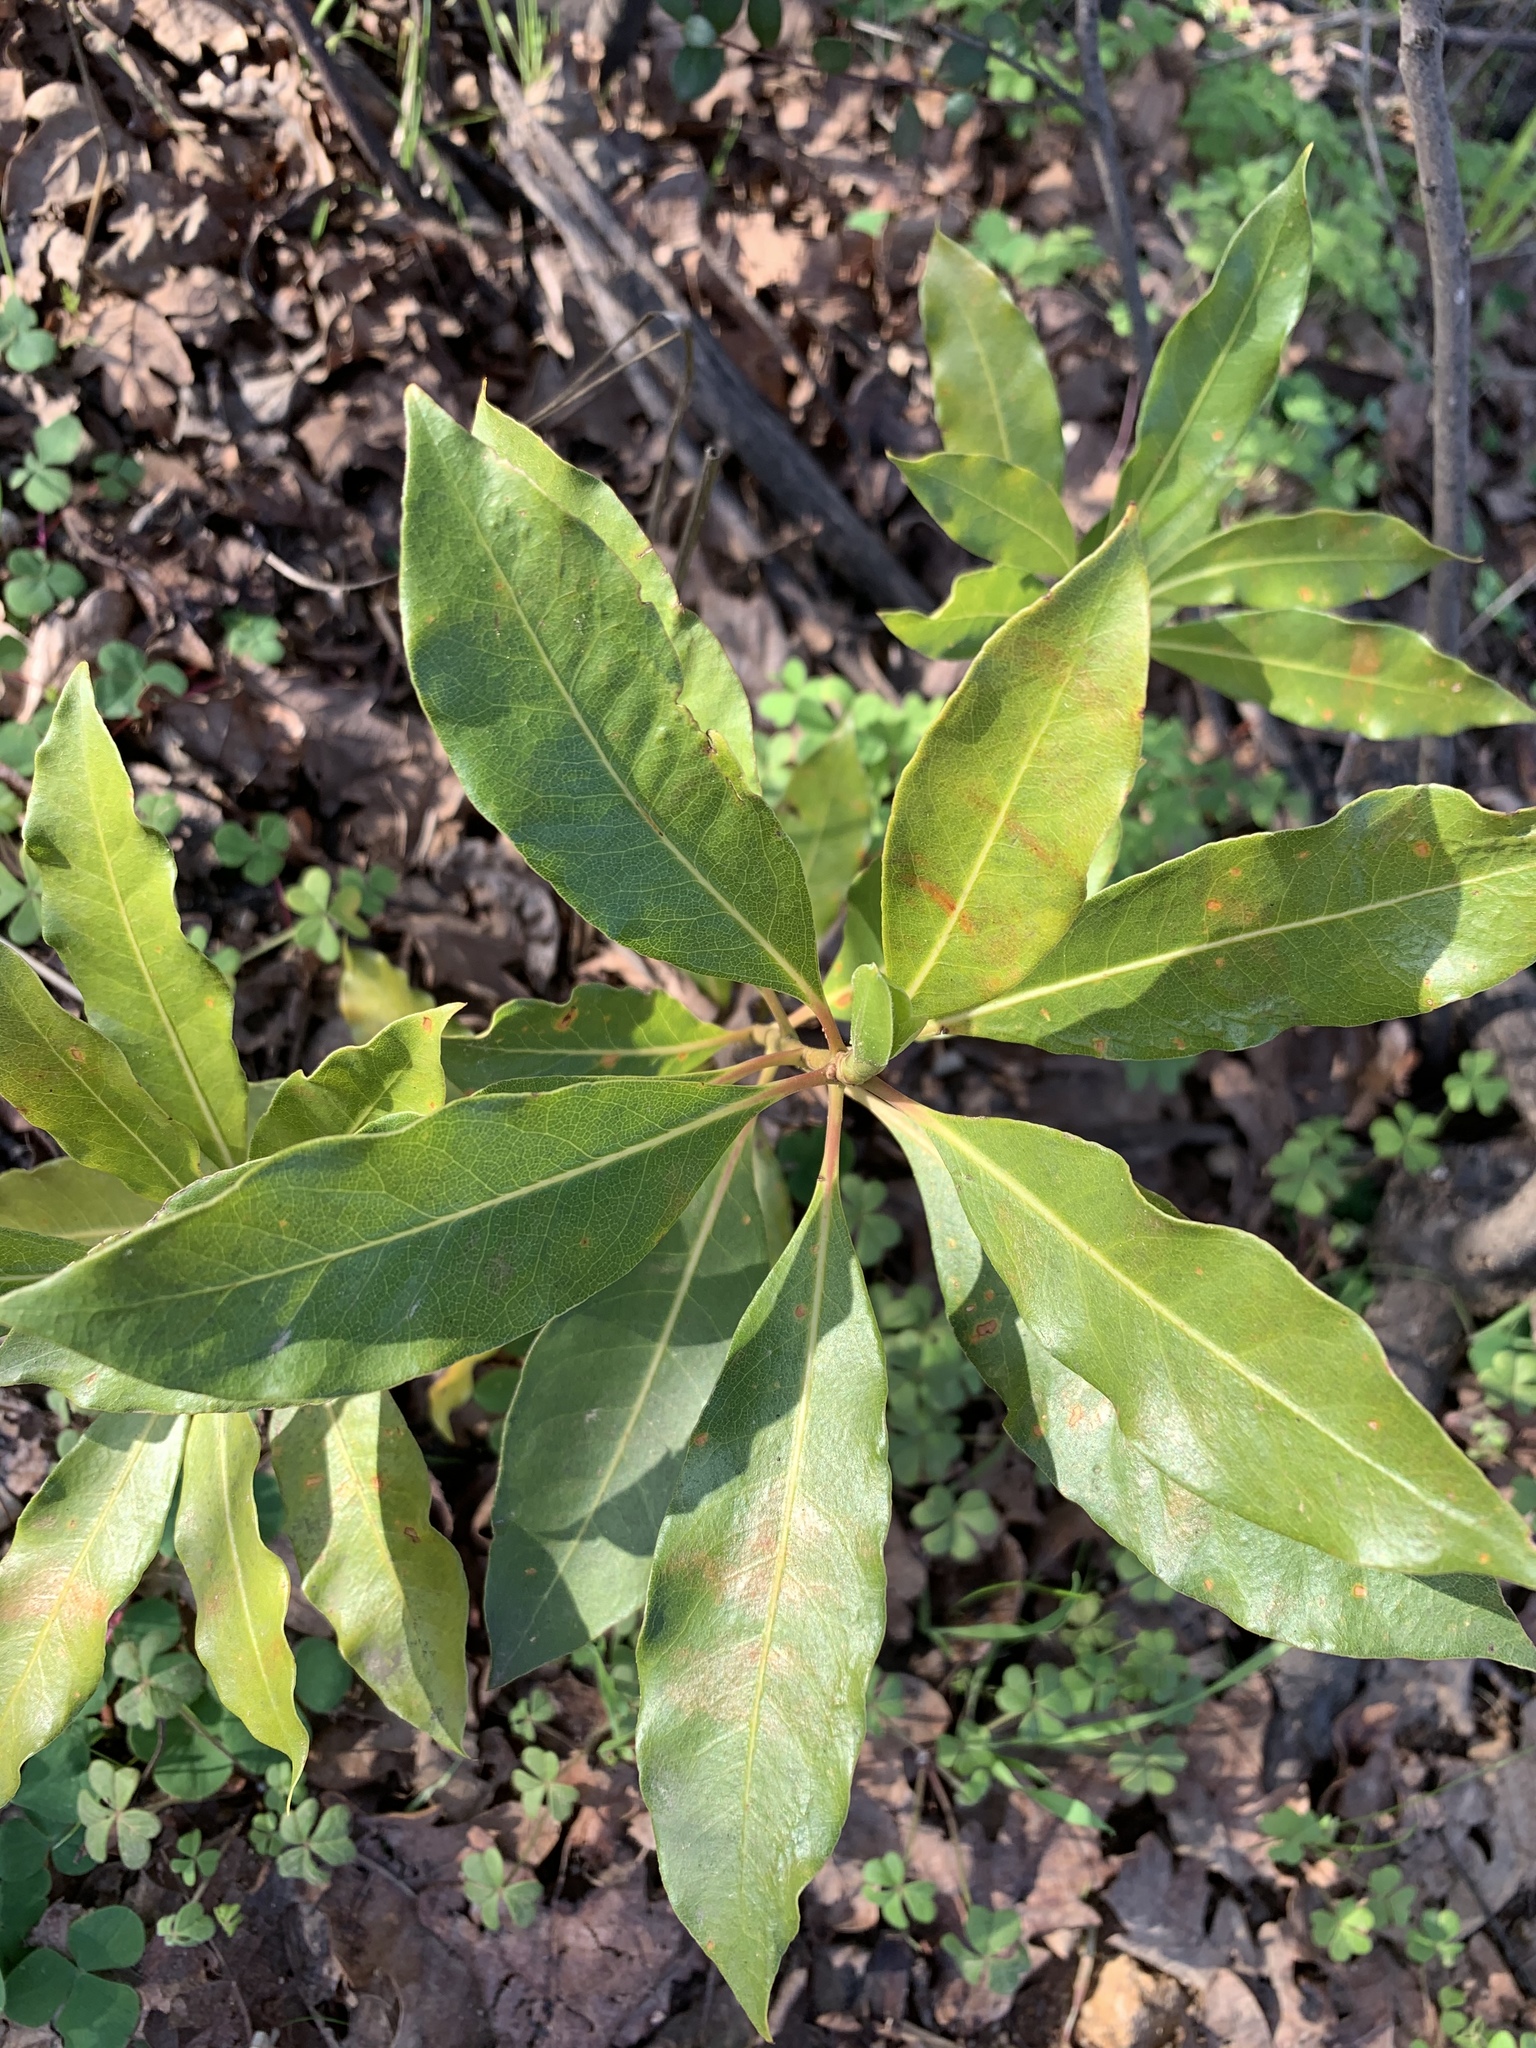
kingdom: Plantae
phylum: Tracheophyta
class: Magnoliopsida
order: Apiales
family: Pittosporaceae
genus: Pittosporum
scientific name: Pittosporum undulatum
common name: Australian cheesewood
